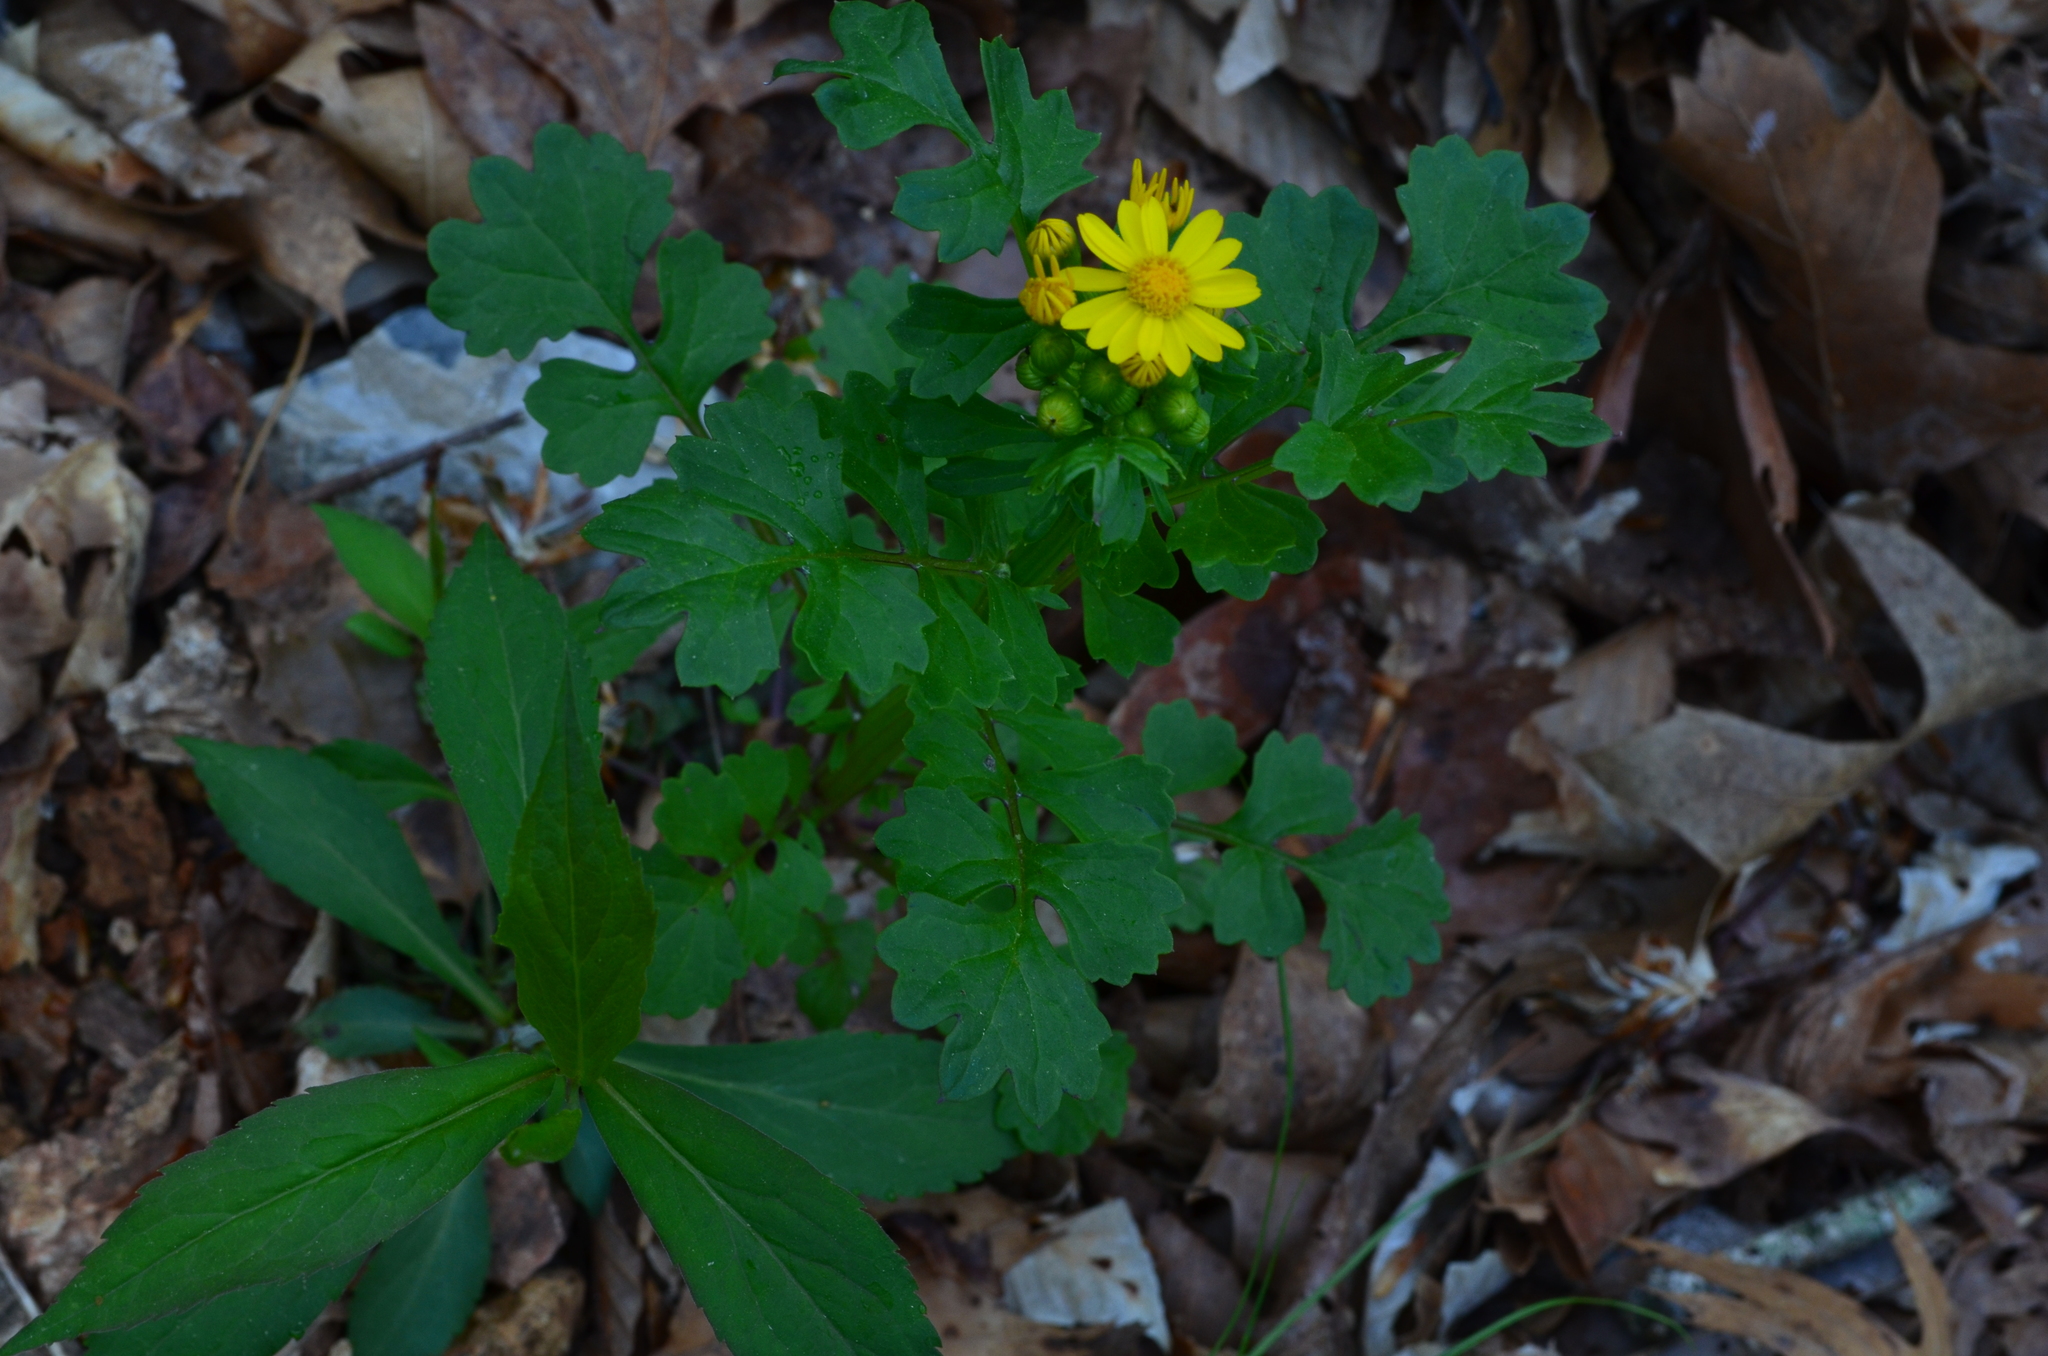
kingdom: Plantae
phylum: Tracheophyta
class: Magnoliopsida
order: Asterales
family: Asteraceae
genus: Packera
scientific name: Packera glabella
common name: Butterweed
